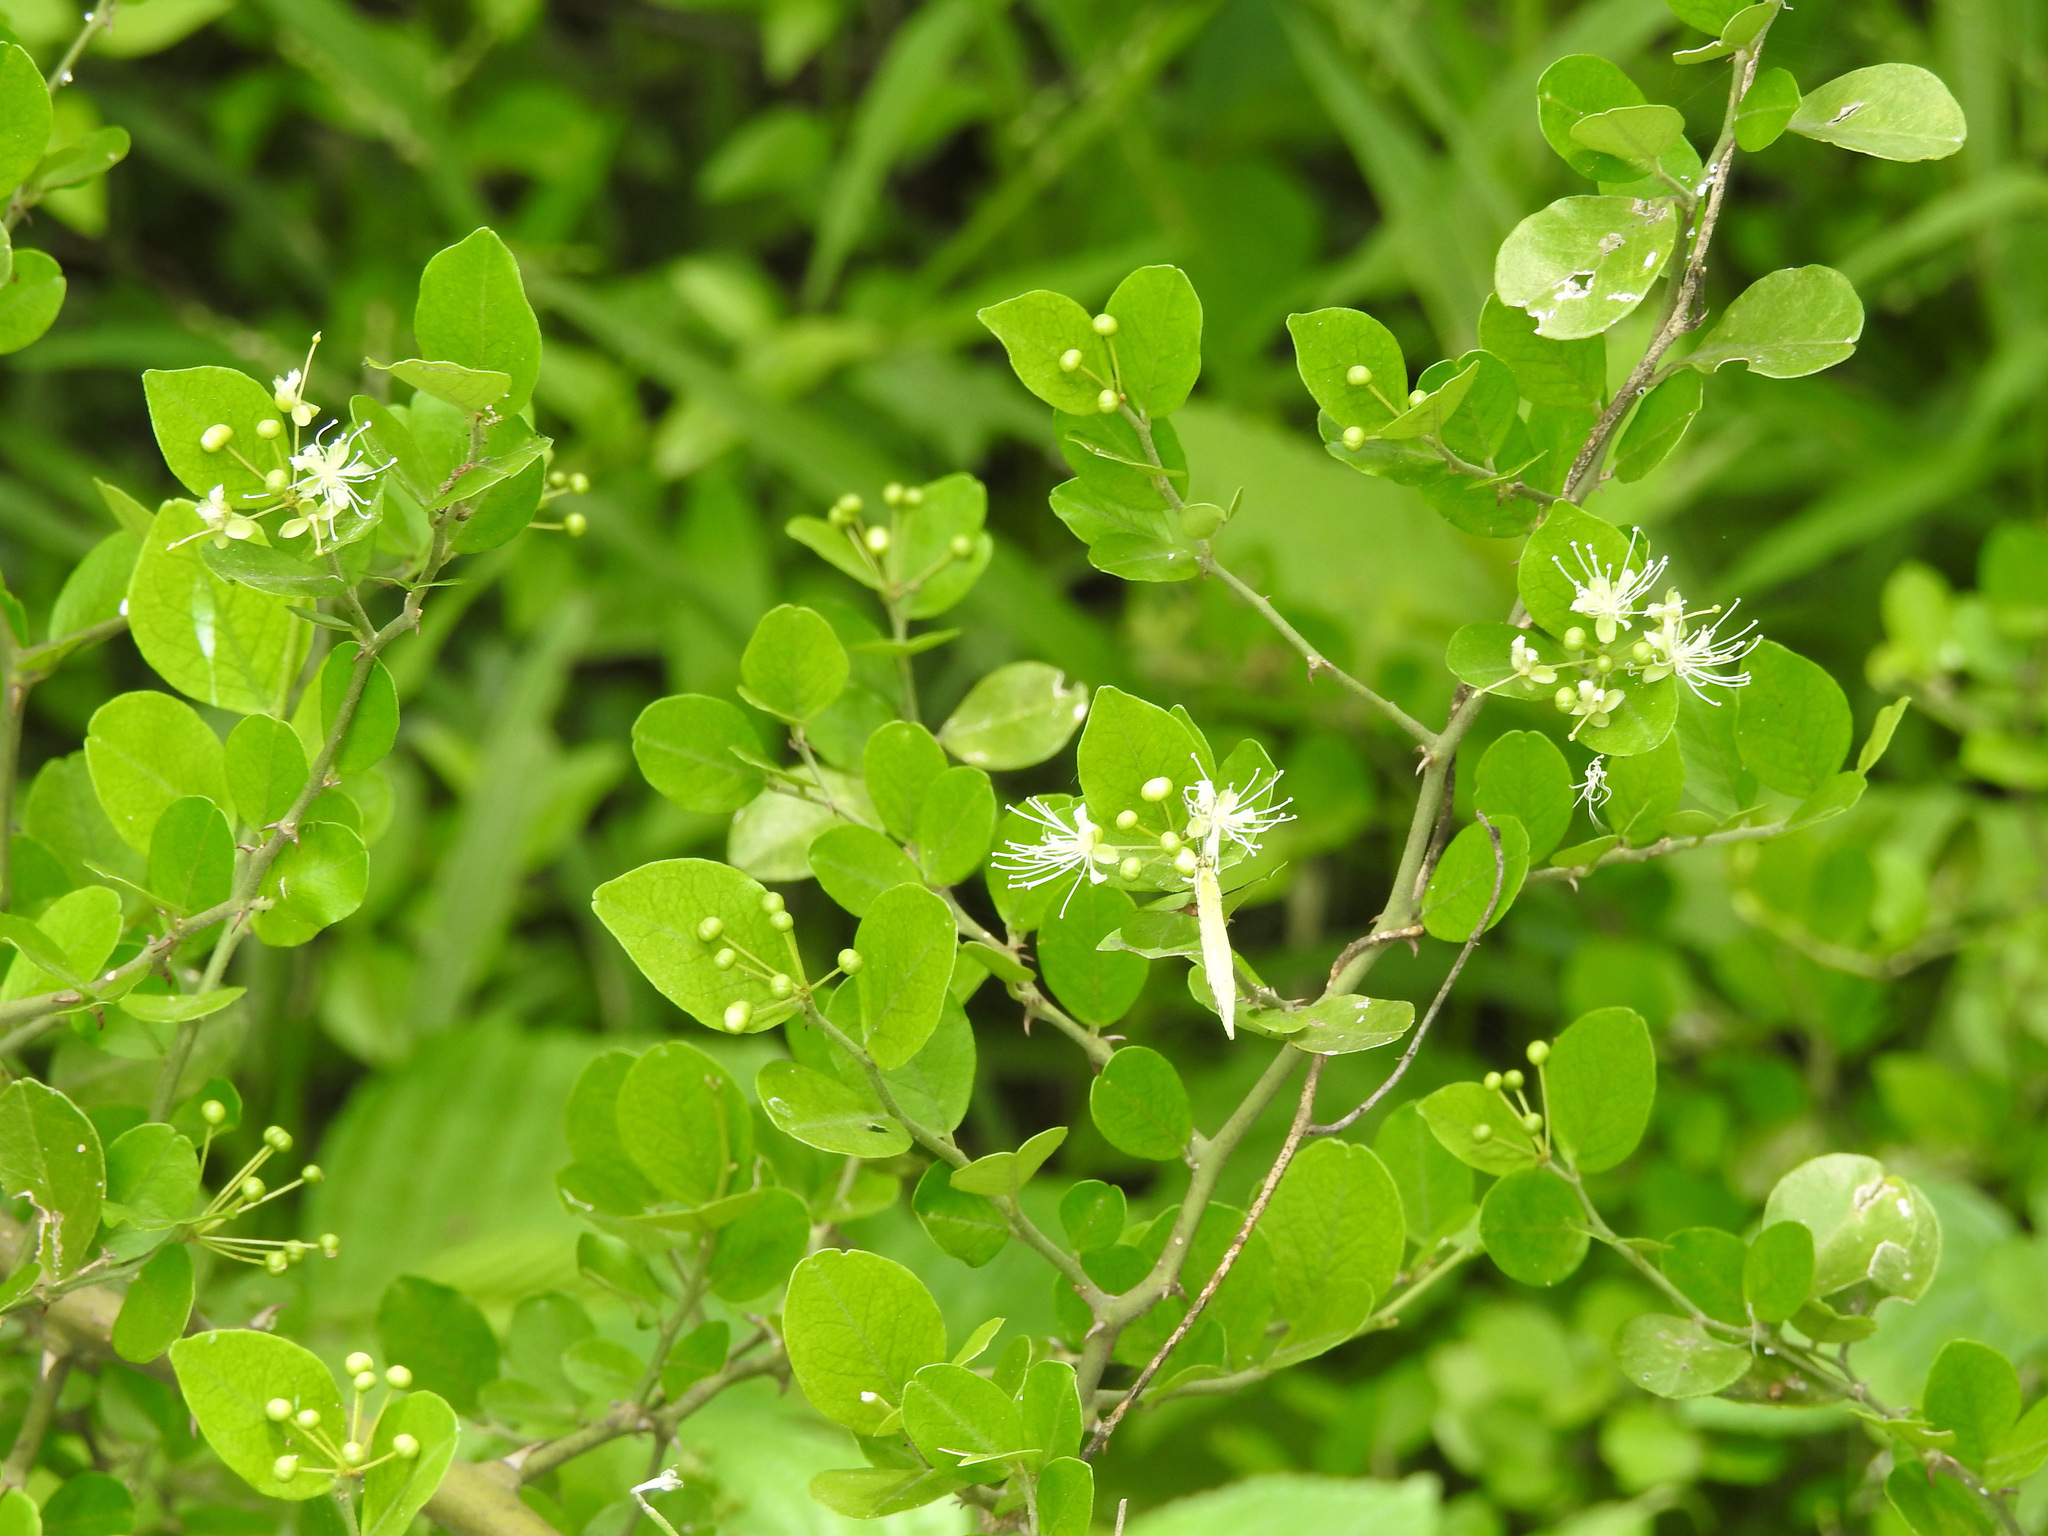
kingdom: Plantae
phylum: Tracheophyta
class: Magnoliopsida
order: Brassicales
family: Capparaceae
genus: Capparis
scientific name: Capparis sepiaria
